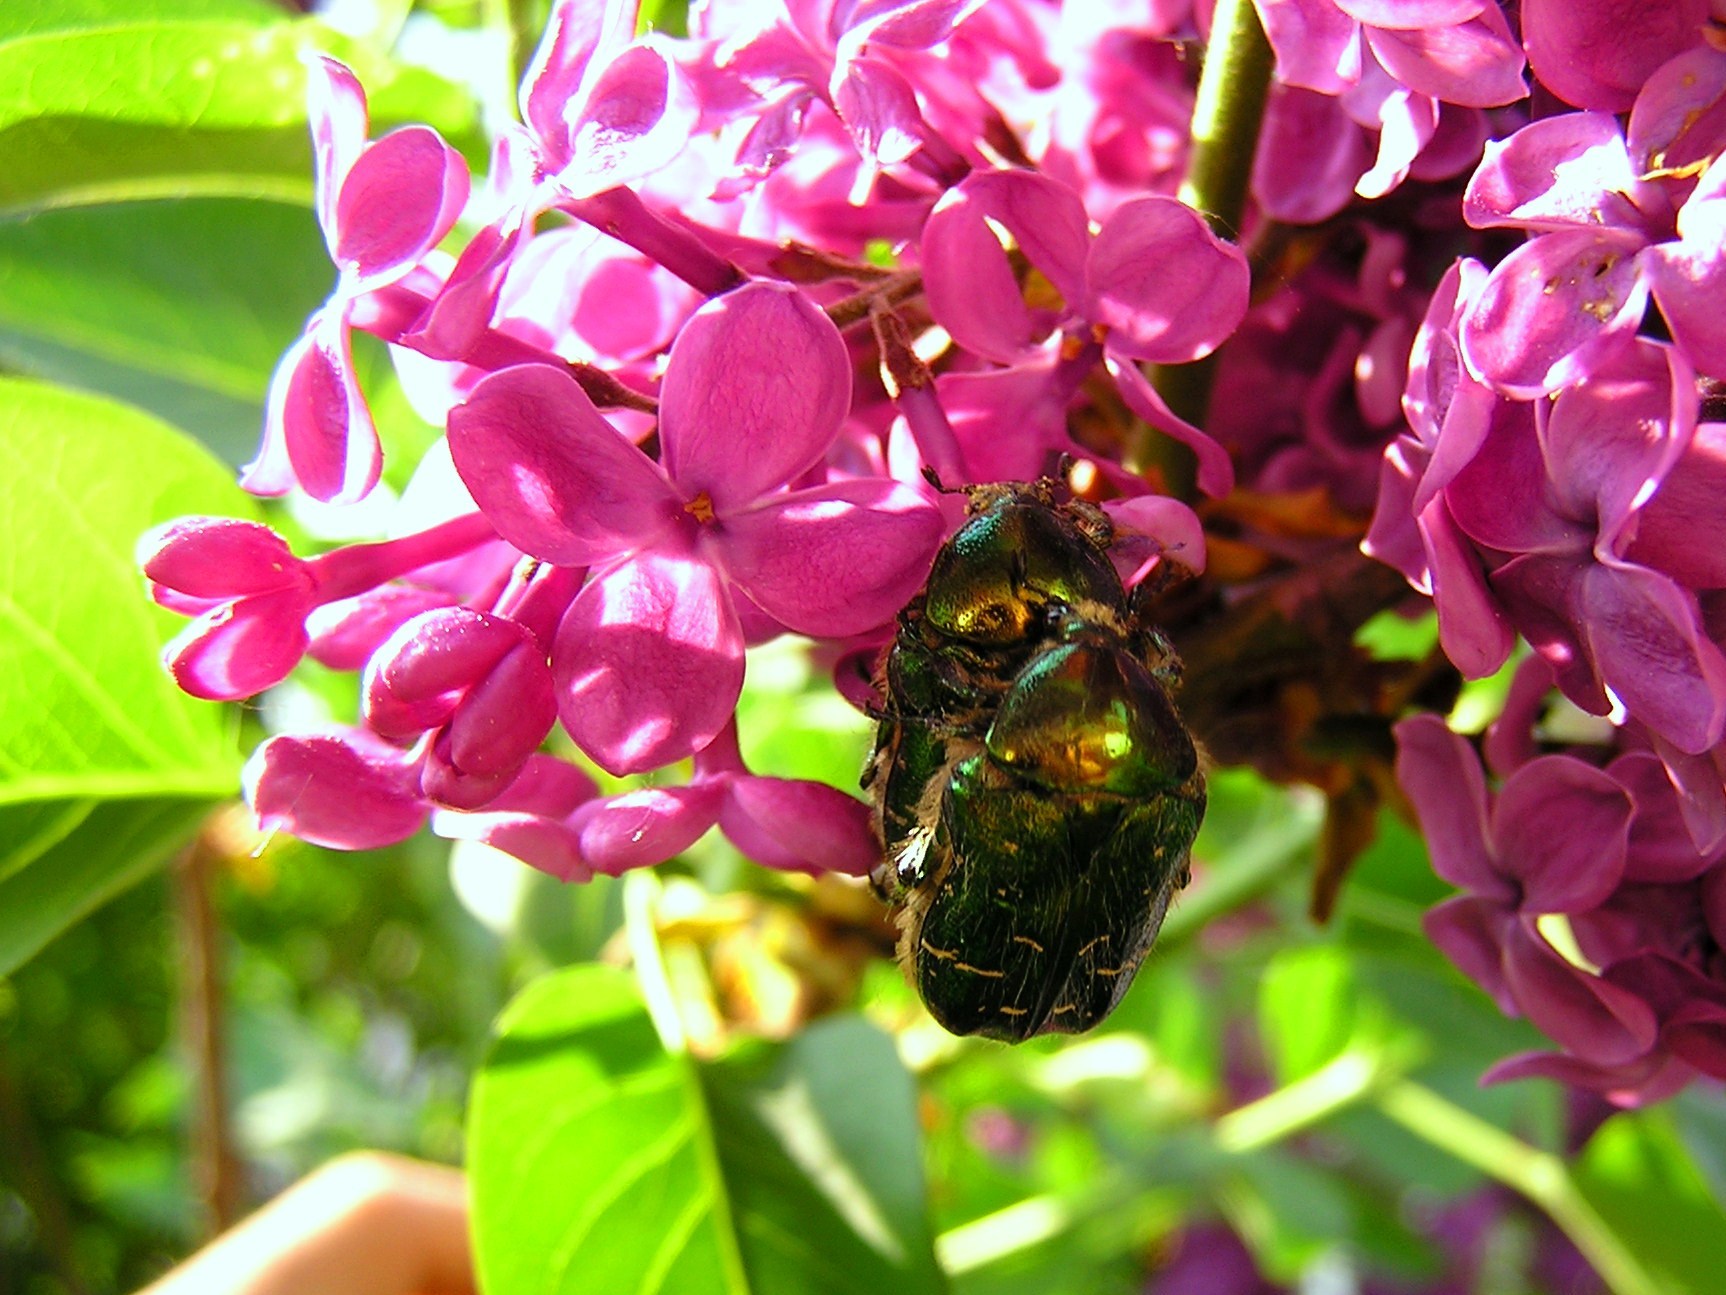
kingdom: Animalia
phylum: Arthropoda
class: Insecta
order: Coleoptera
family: Scarabaeidae
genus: Cetonia
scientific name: Cetonia aurata
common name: Rose chafer
